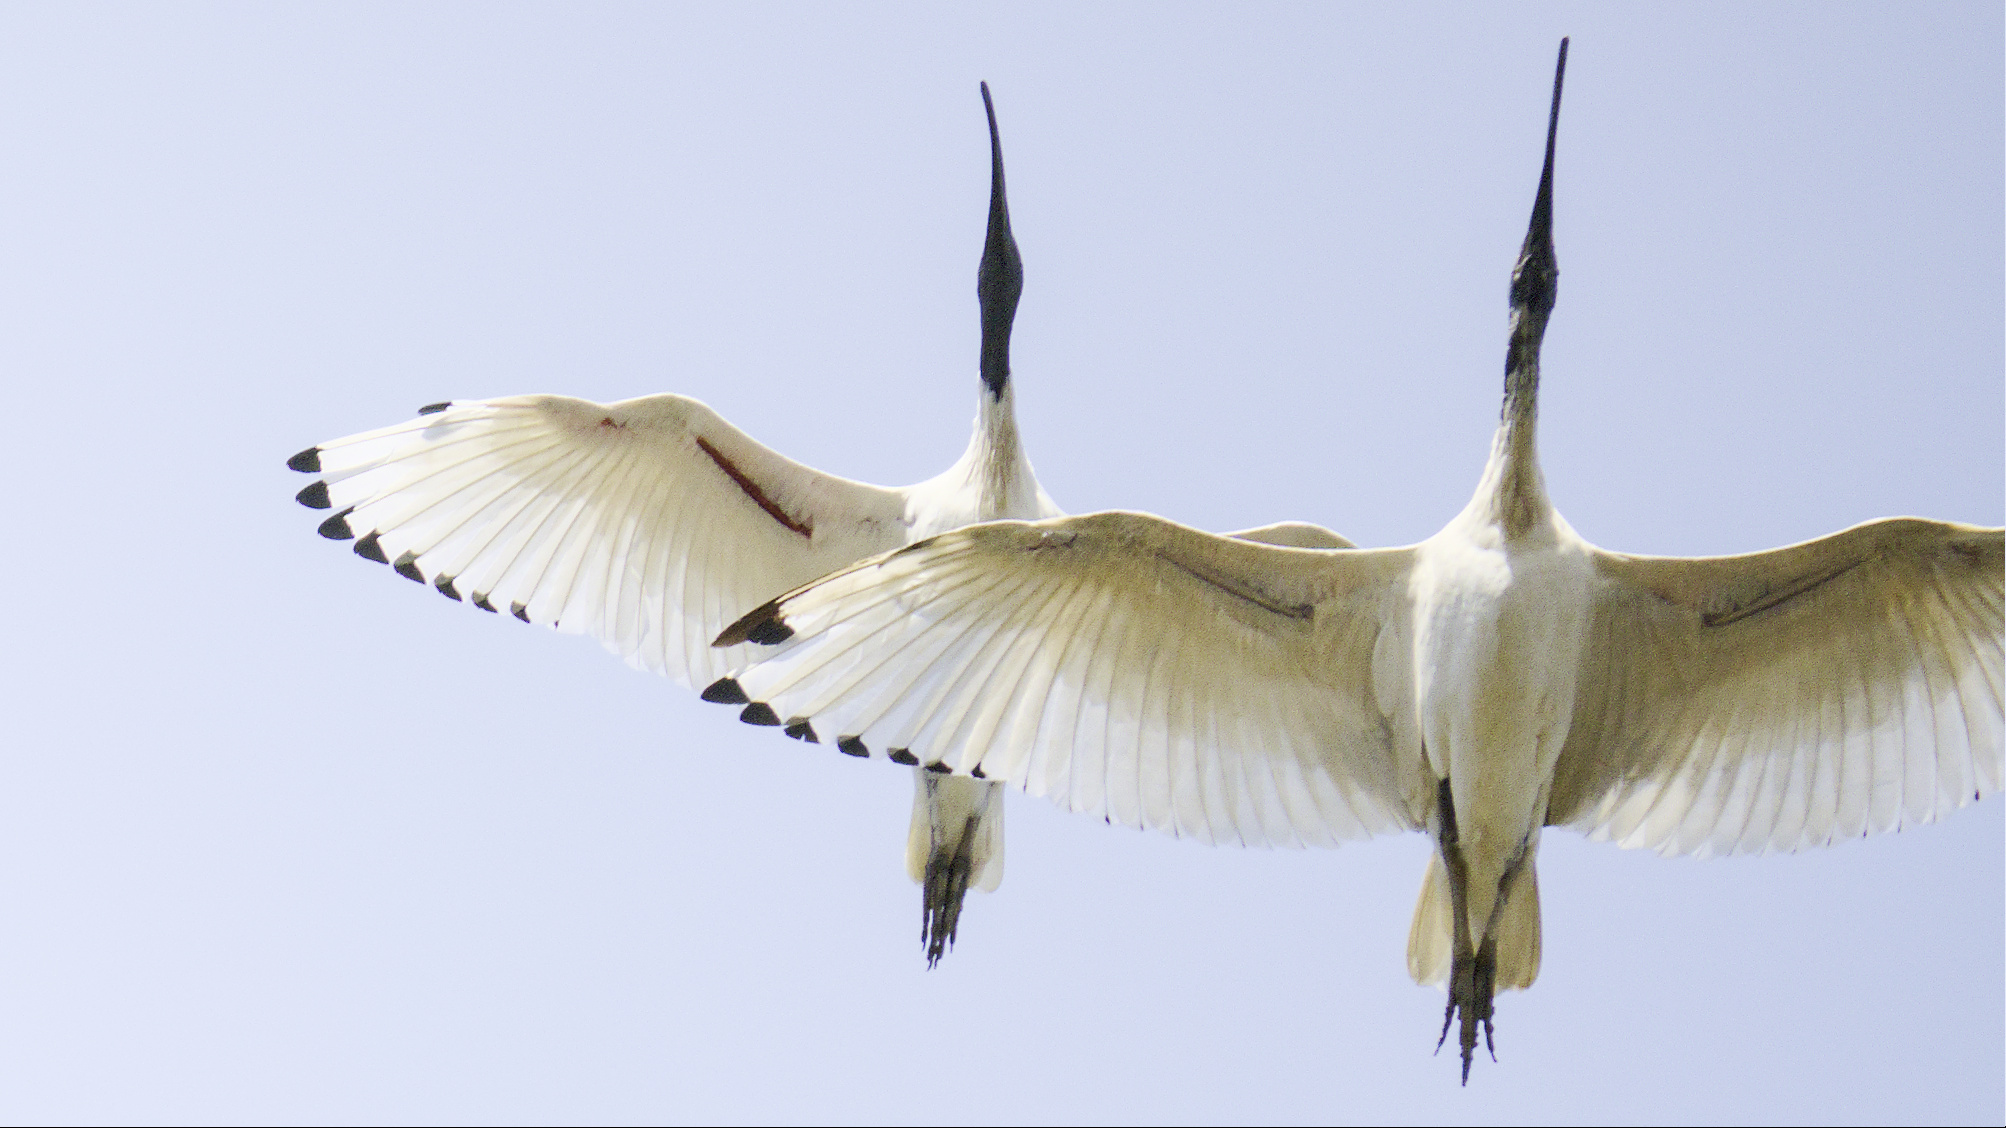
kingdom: Animalia
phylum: Chordata
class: Aves
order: Pelecaniformes
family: Threskiornithidae
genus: Threskiornis
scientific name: Threskiornis molucca
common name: Australian white ibis
